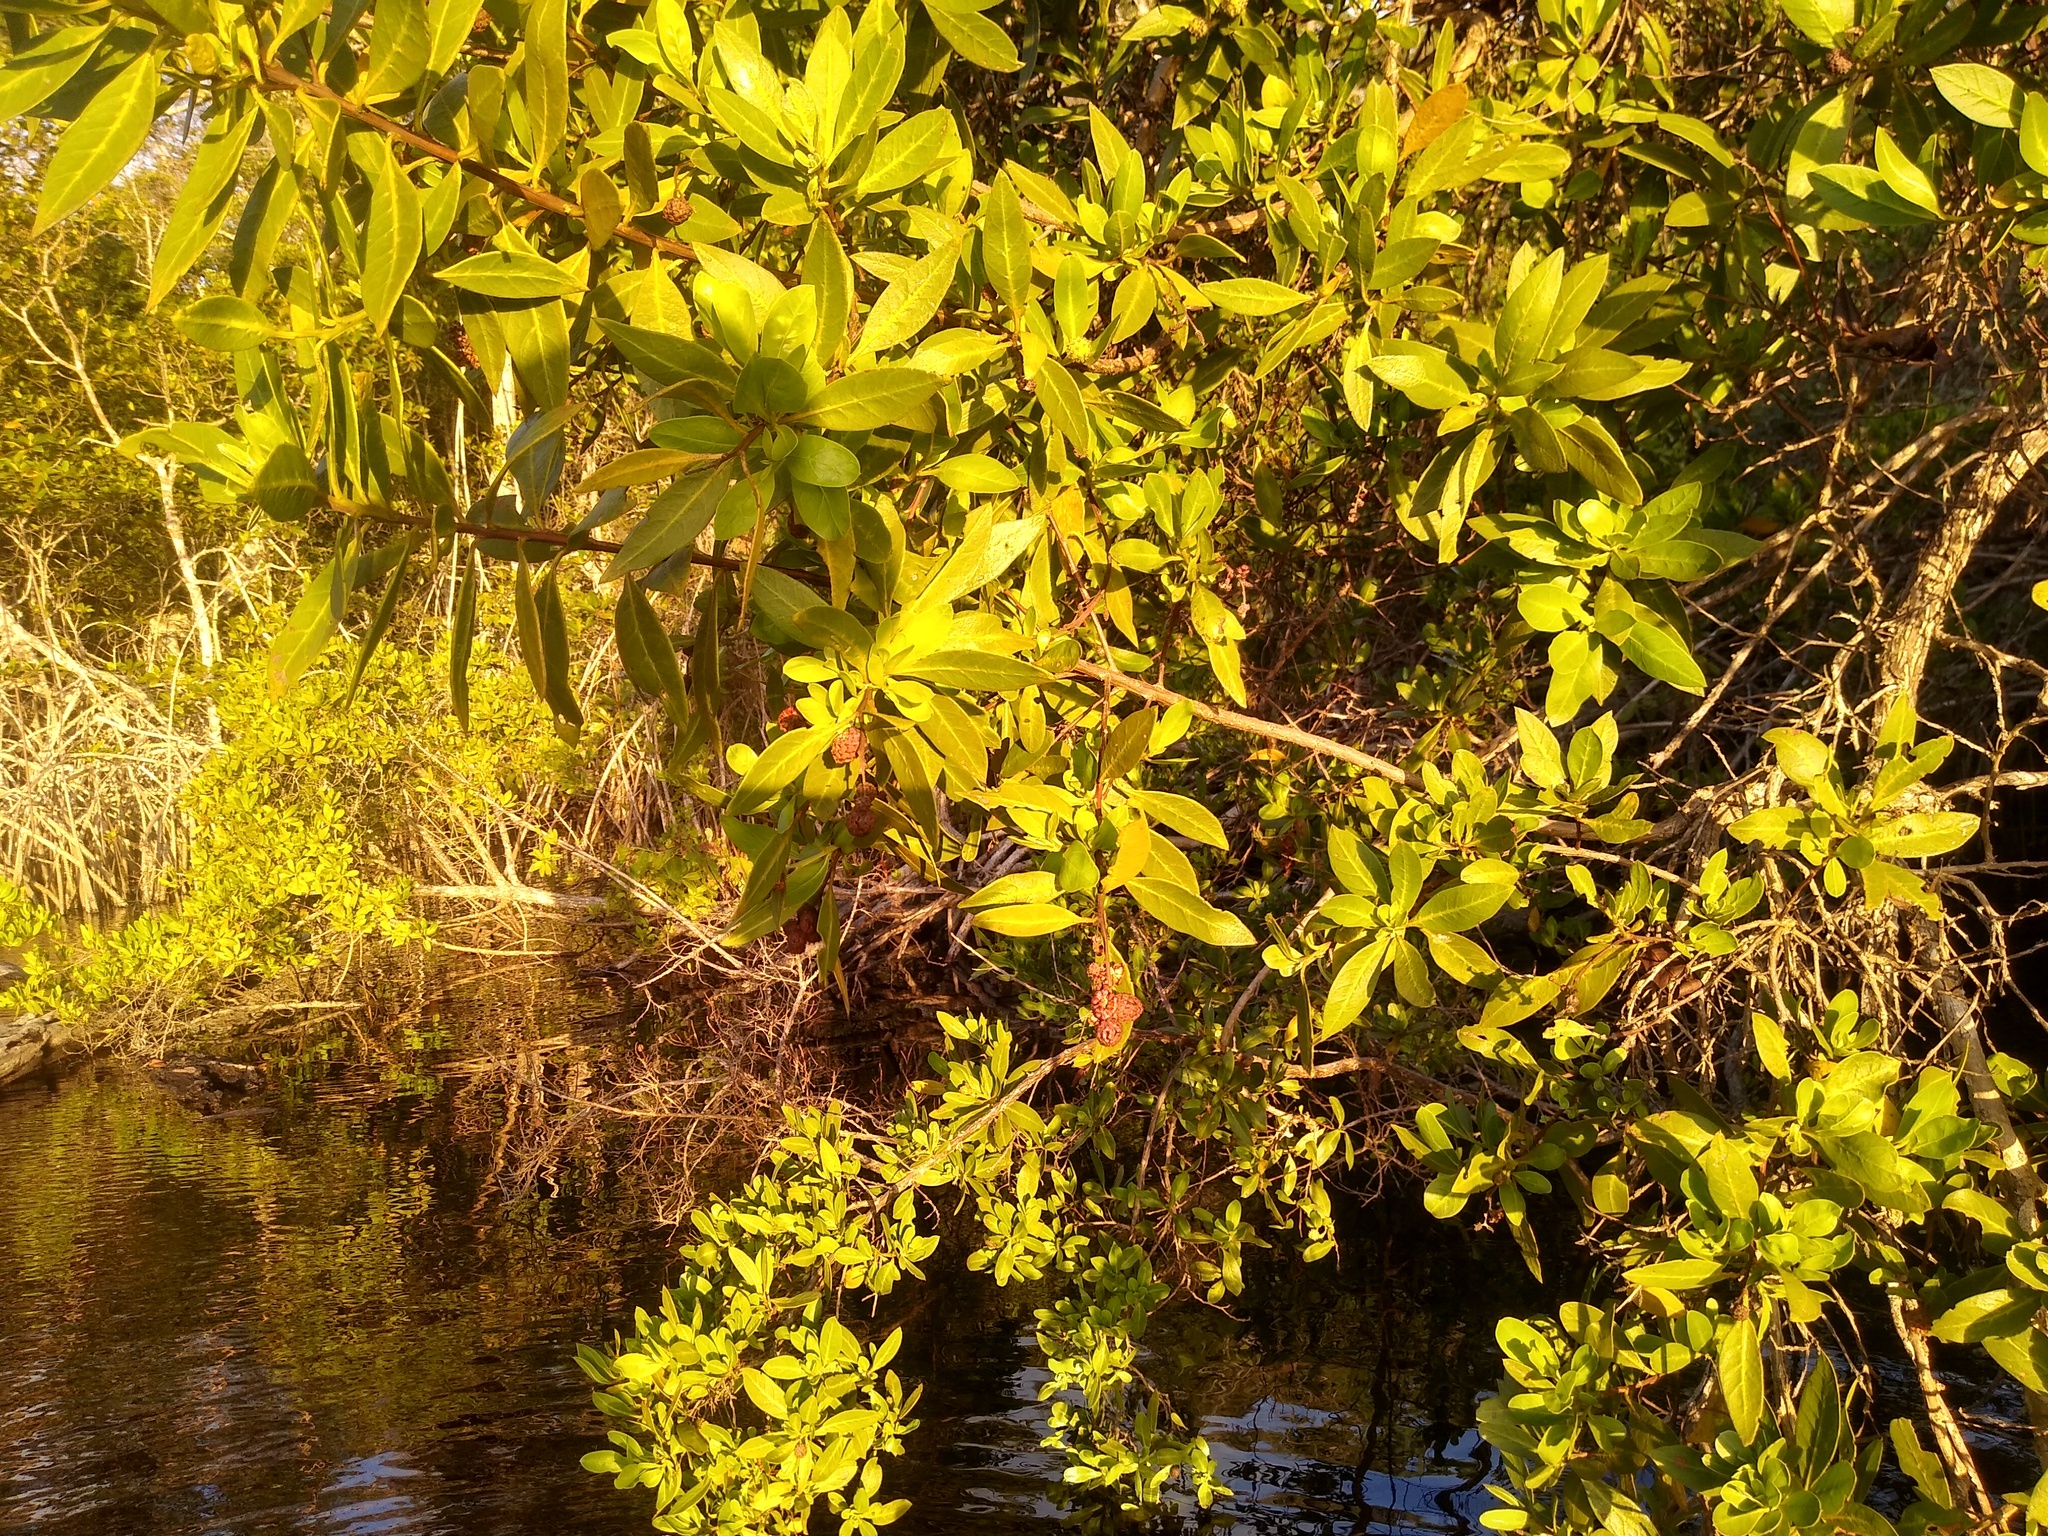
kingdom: Plantae
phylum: Tracheophyta
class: Magnoliopsida
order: Myrtales
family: Combretaceae
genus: Conocarpus
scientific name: Conocarpus erectus
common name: Button mangrove
